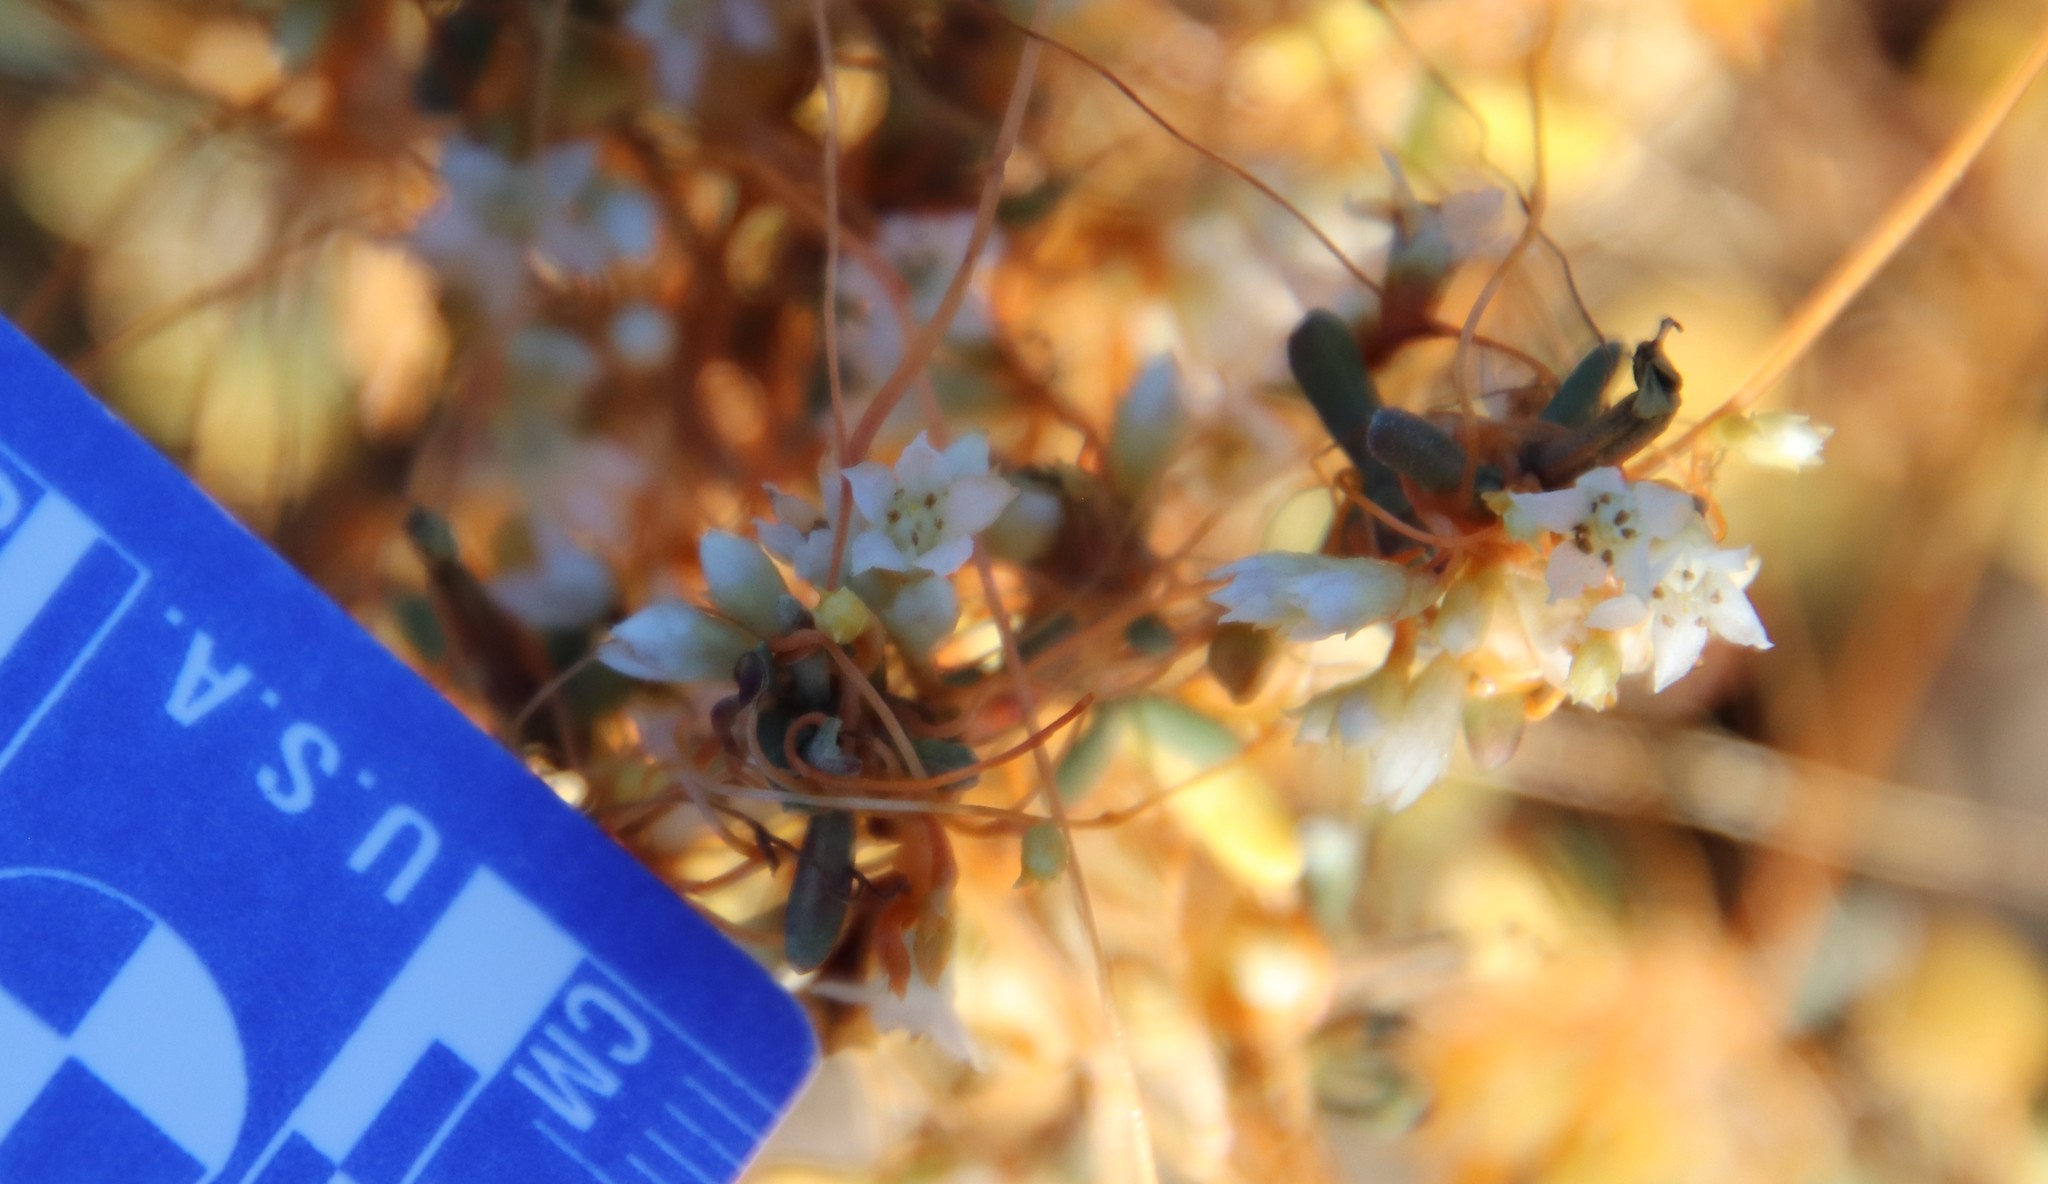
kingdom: Plantae
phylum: Tracheophyta
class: Magnoliopsida
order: Solanales
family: Convolvulaceae
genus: Cuscuta
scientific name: Cuscuta pacifica
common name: Large saltmarsh dodder
